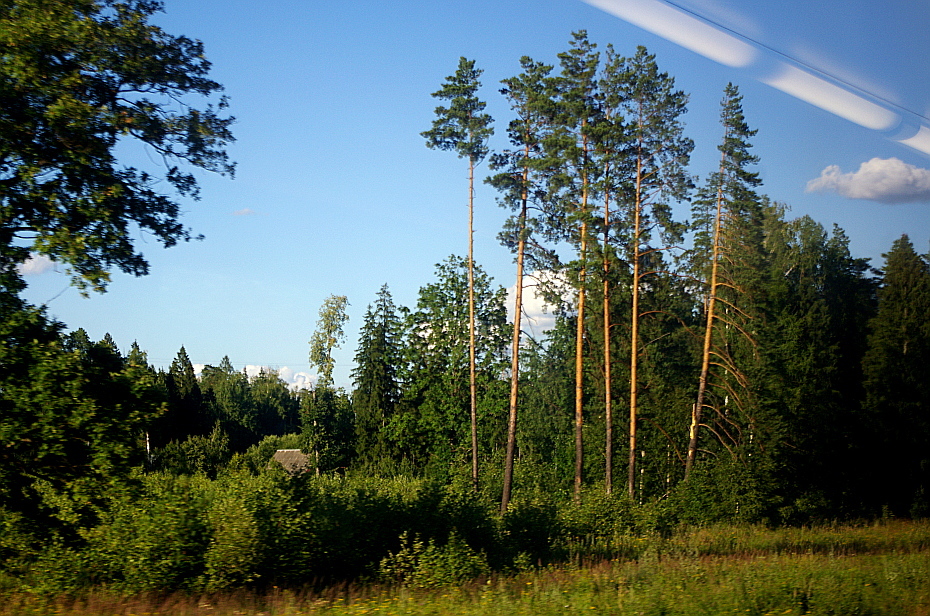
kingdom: Plantae
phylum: Tracheophyta
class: Pinopsida
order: Pinales
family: Pinaceae
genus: Pinus
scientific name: Pinus sylvestris
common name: Scots pine
